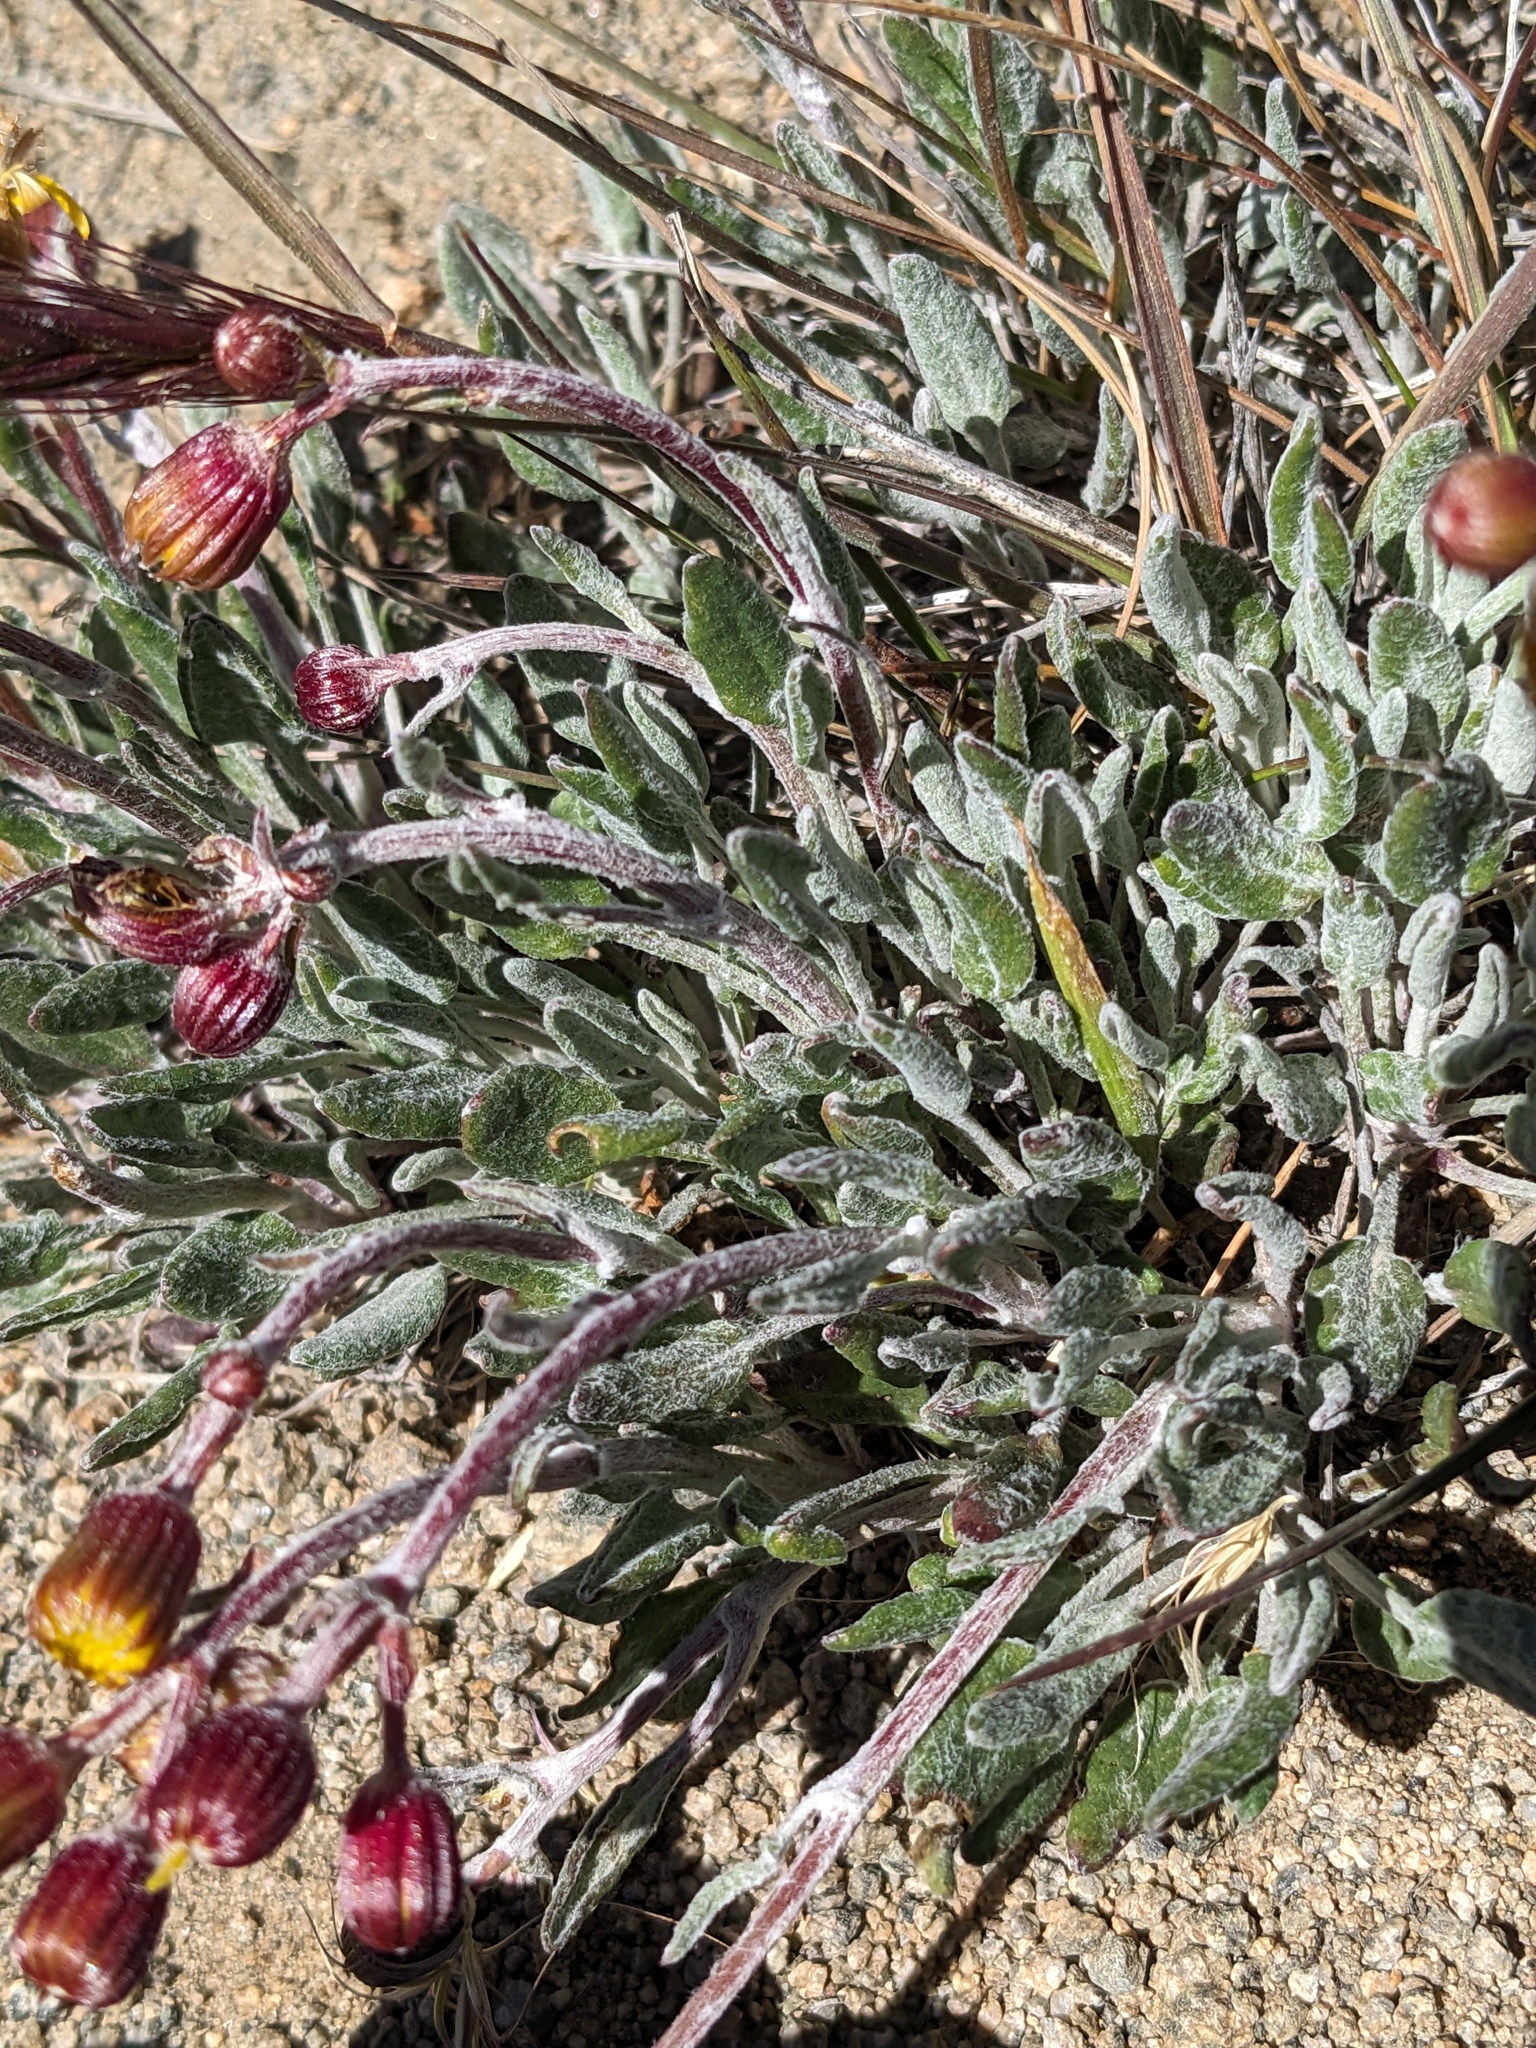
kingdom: Plantae
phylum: Tracheophyta
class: Magnoliopsida
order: Asterales
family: Asteraceae
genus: Packera
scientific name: Packera werneriifolia
